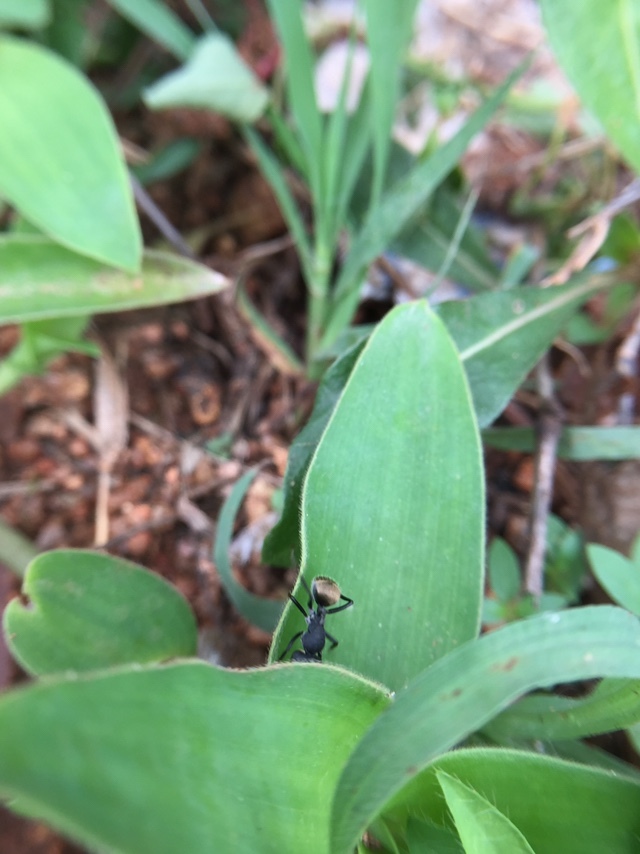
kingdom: Animalia
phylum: Arthropoda
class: Insecta
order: Hymenoptera
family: Formicidae
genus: Camponotus
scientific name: Camponotus sericeus
